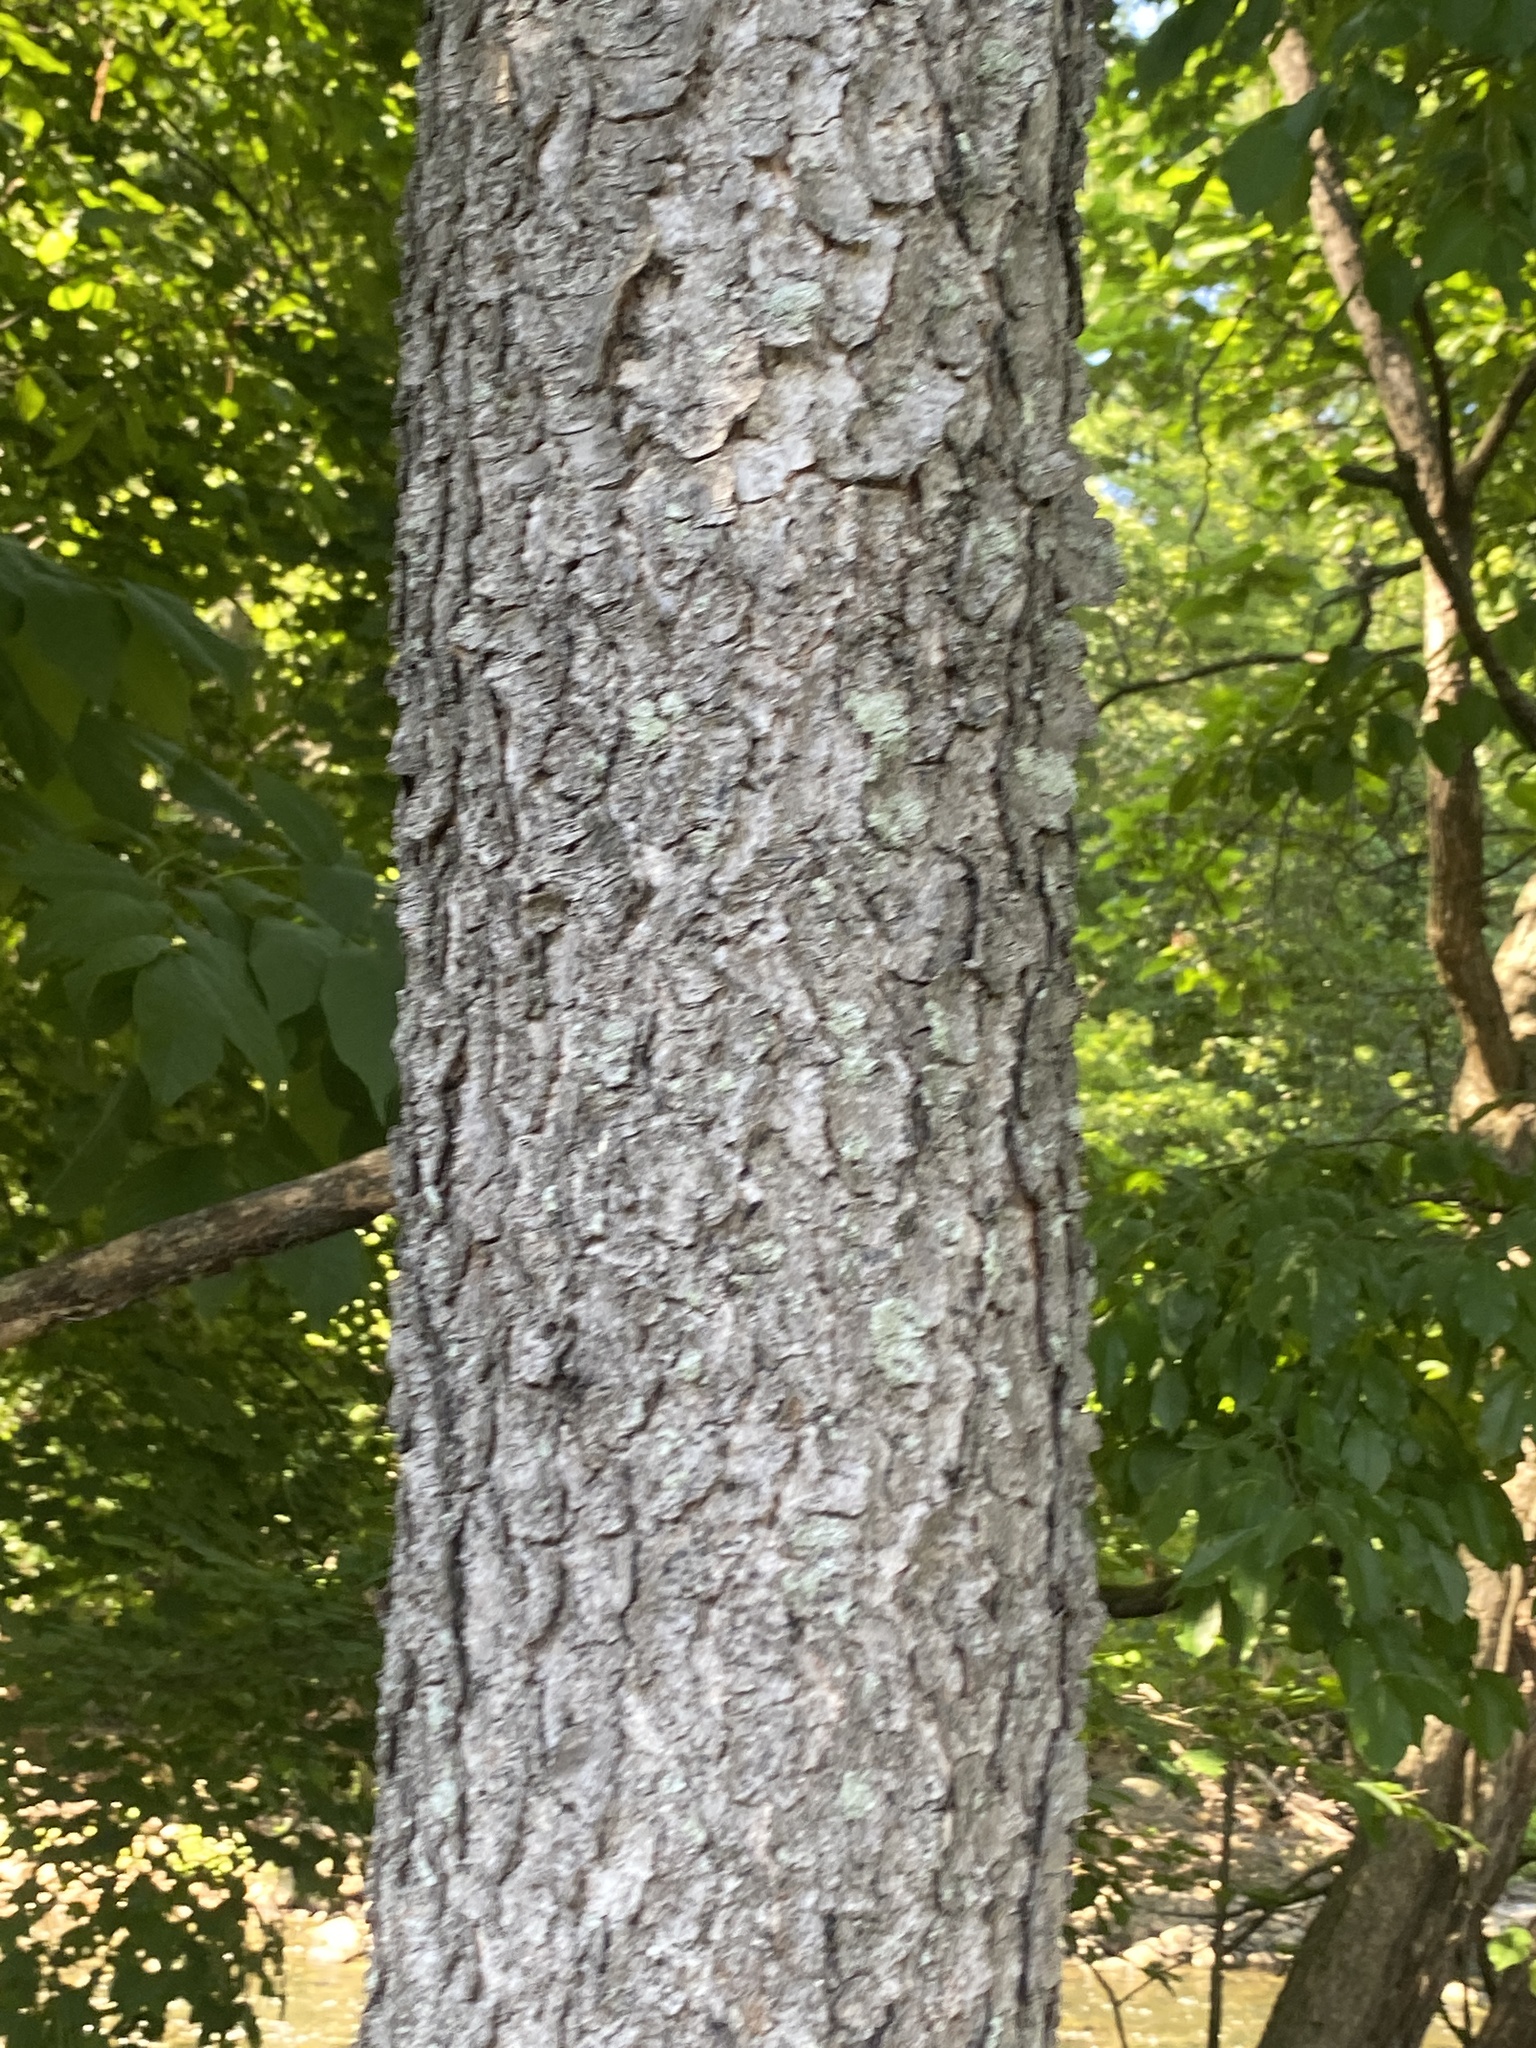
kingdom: Plantae
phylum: Tracheophyta
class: Magnoliopsida
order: Rosales
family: Rosaceae
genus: Prunus
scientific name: Prunus serotina
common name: Black cherry
